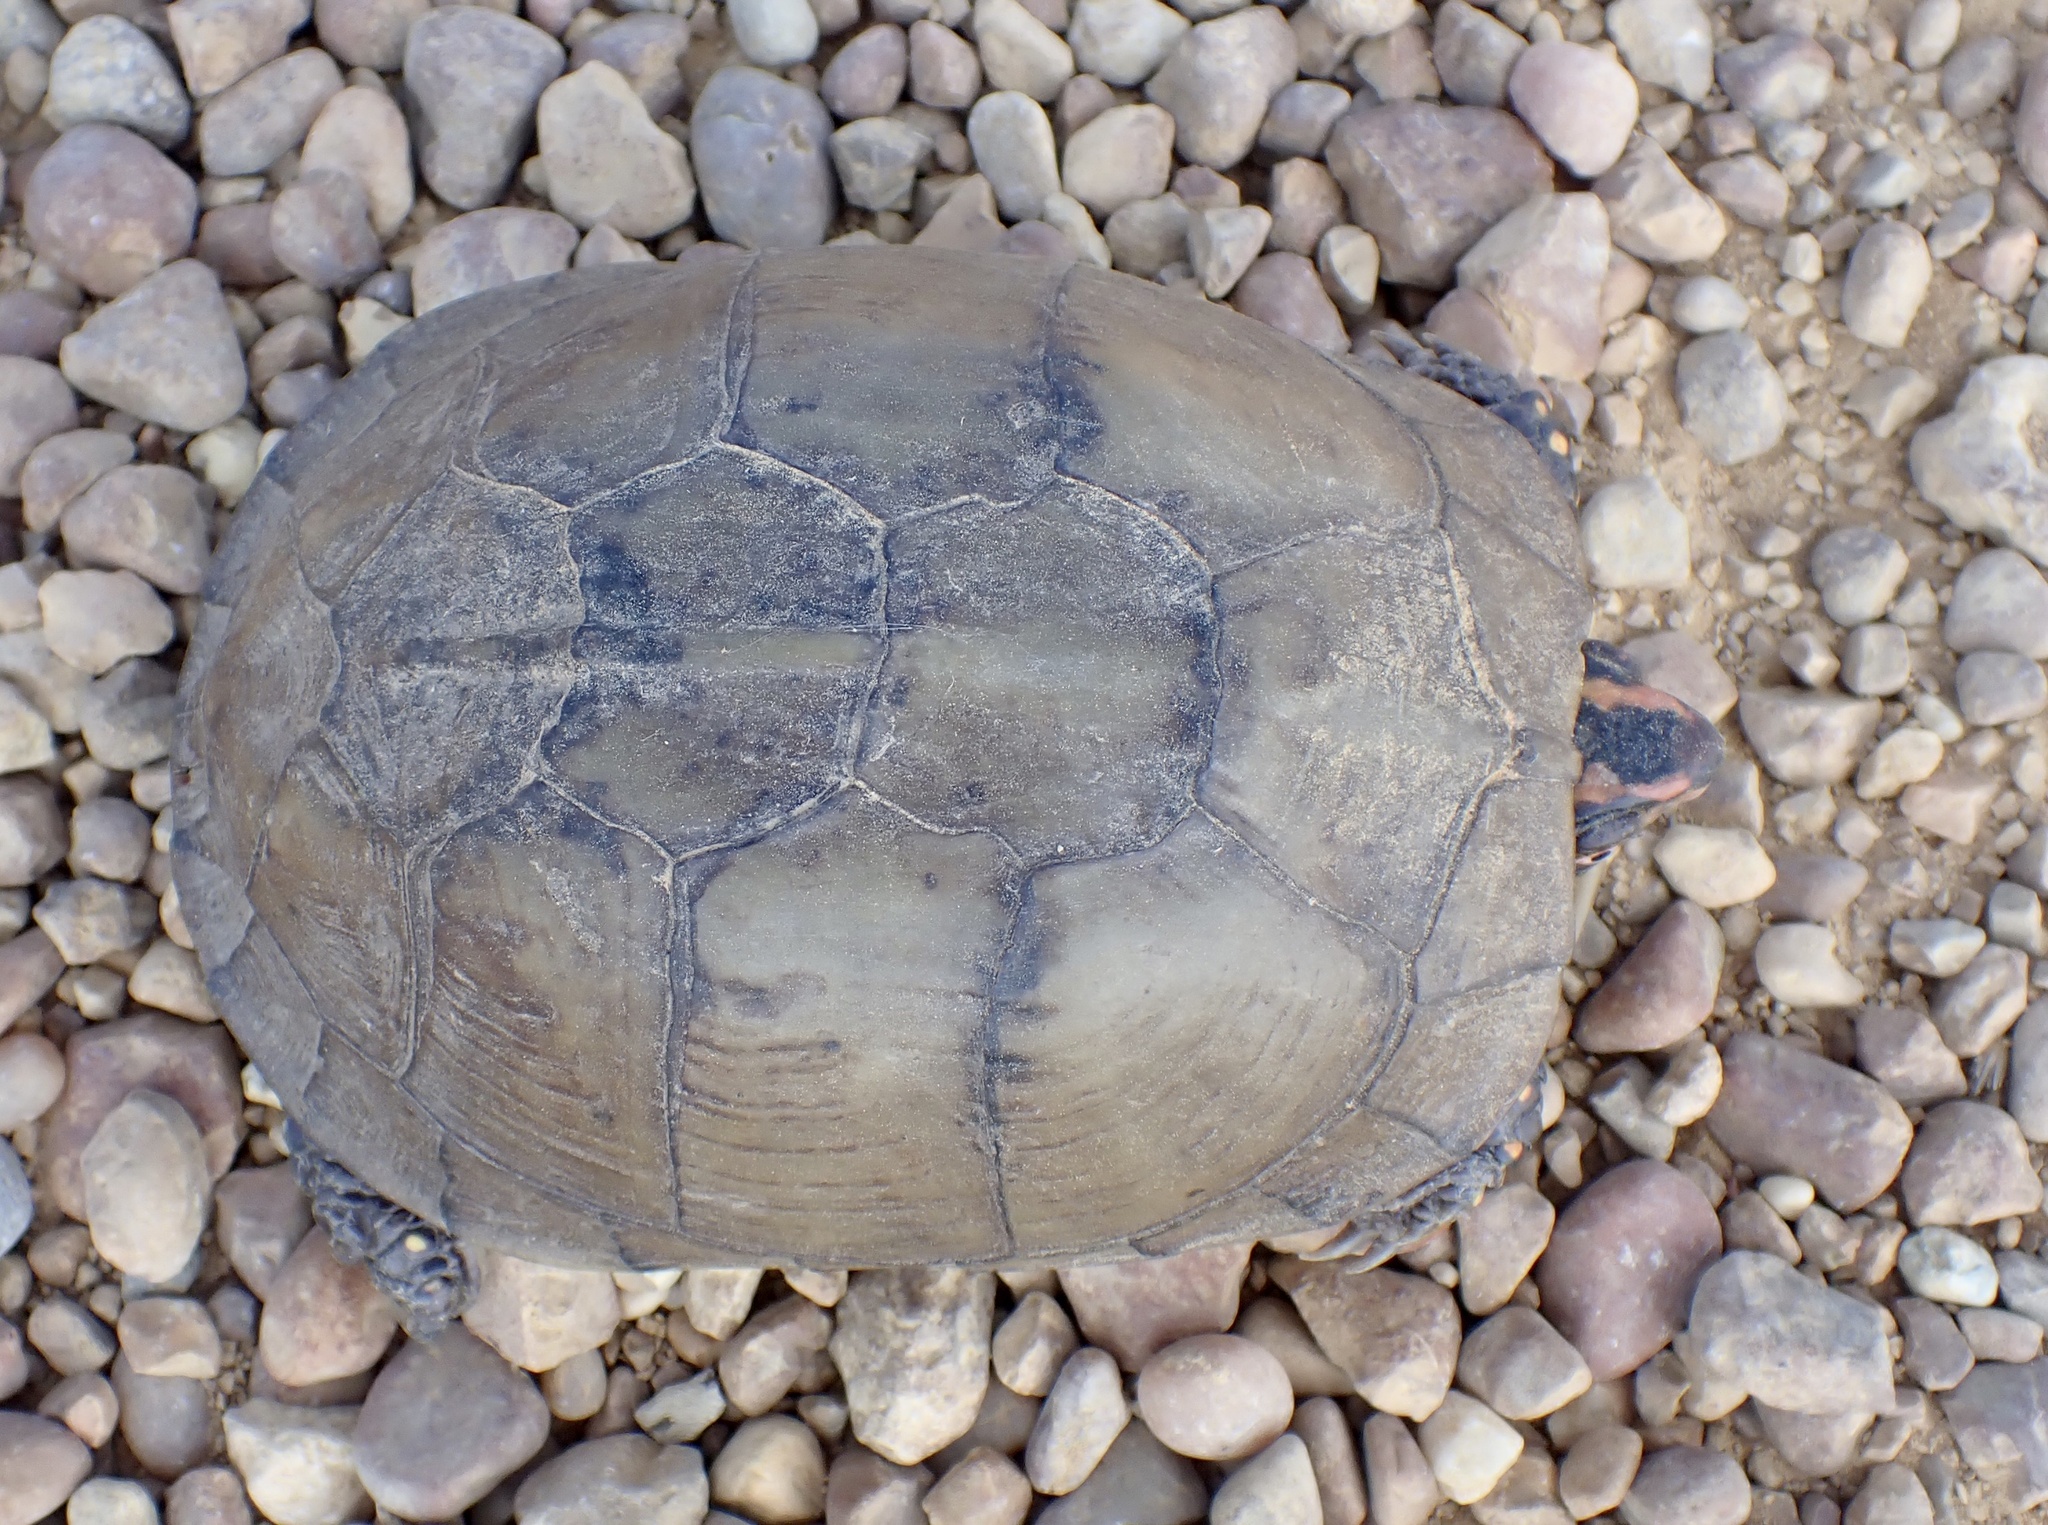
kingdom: Animalia
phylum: Chordata
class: Testudines
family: Emydidae
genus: Terrapene
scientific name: Terrapene carolina
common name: Common box turtle
